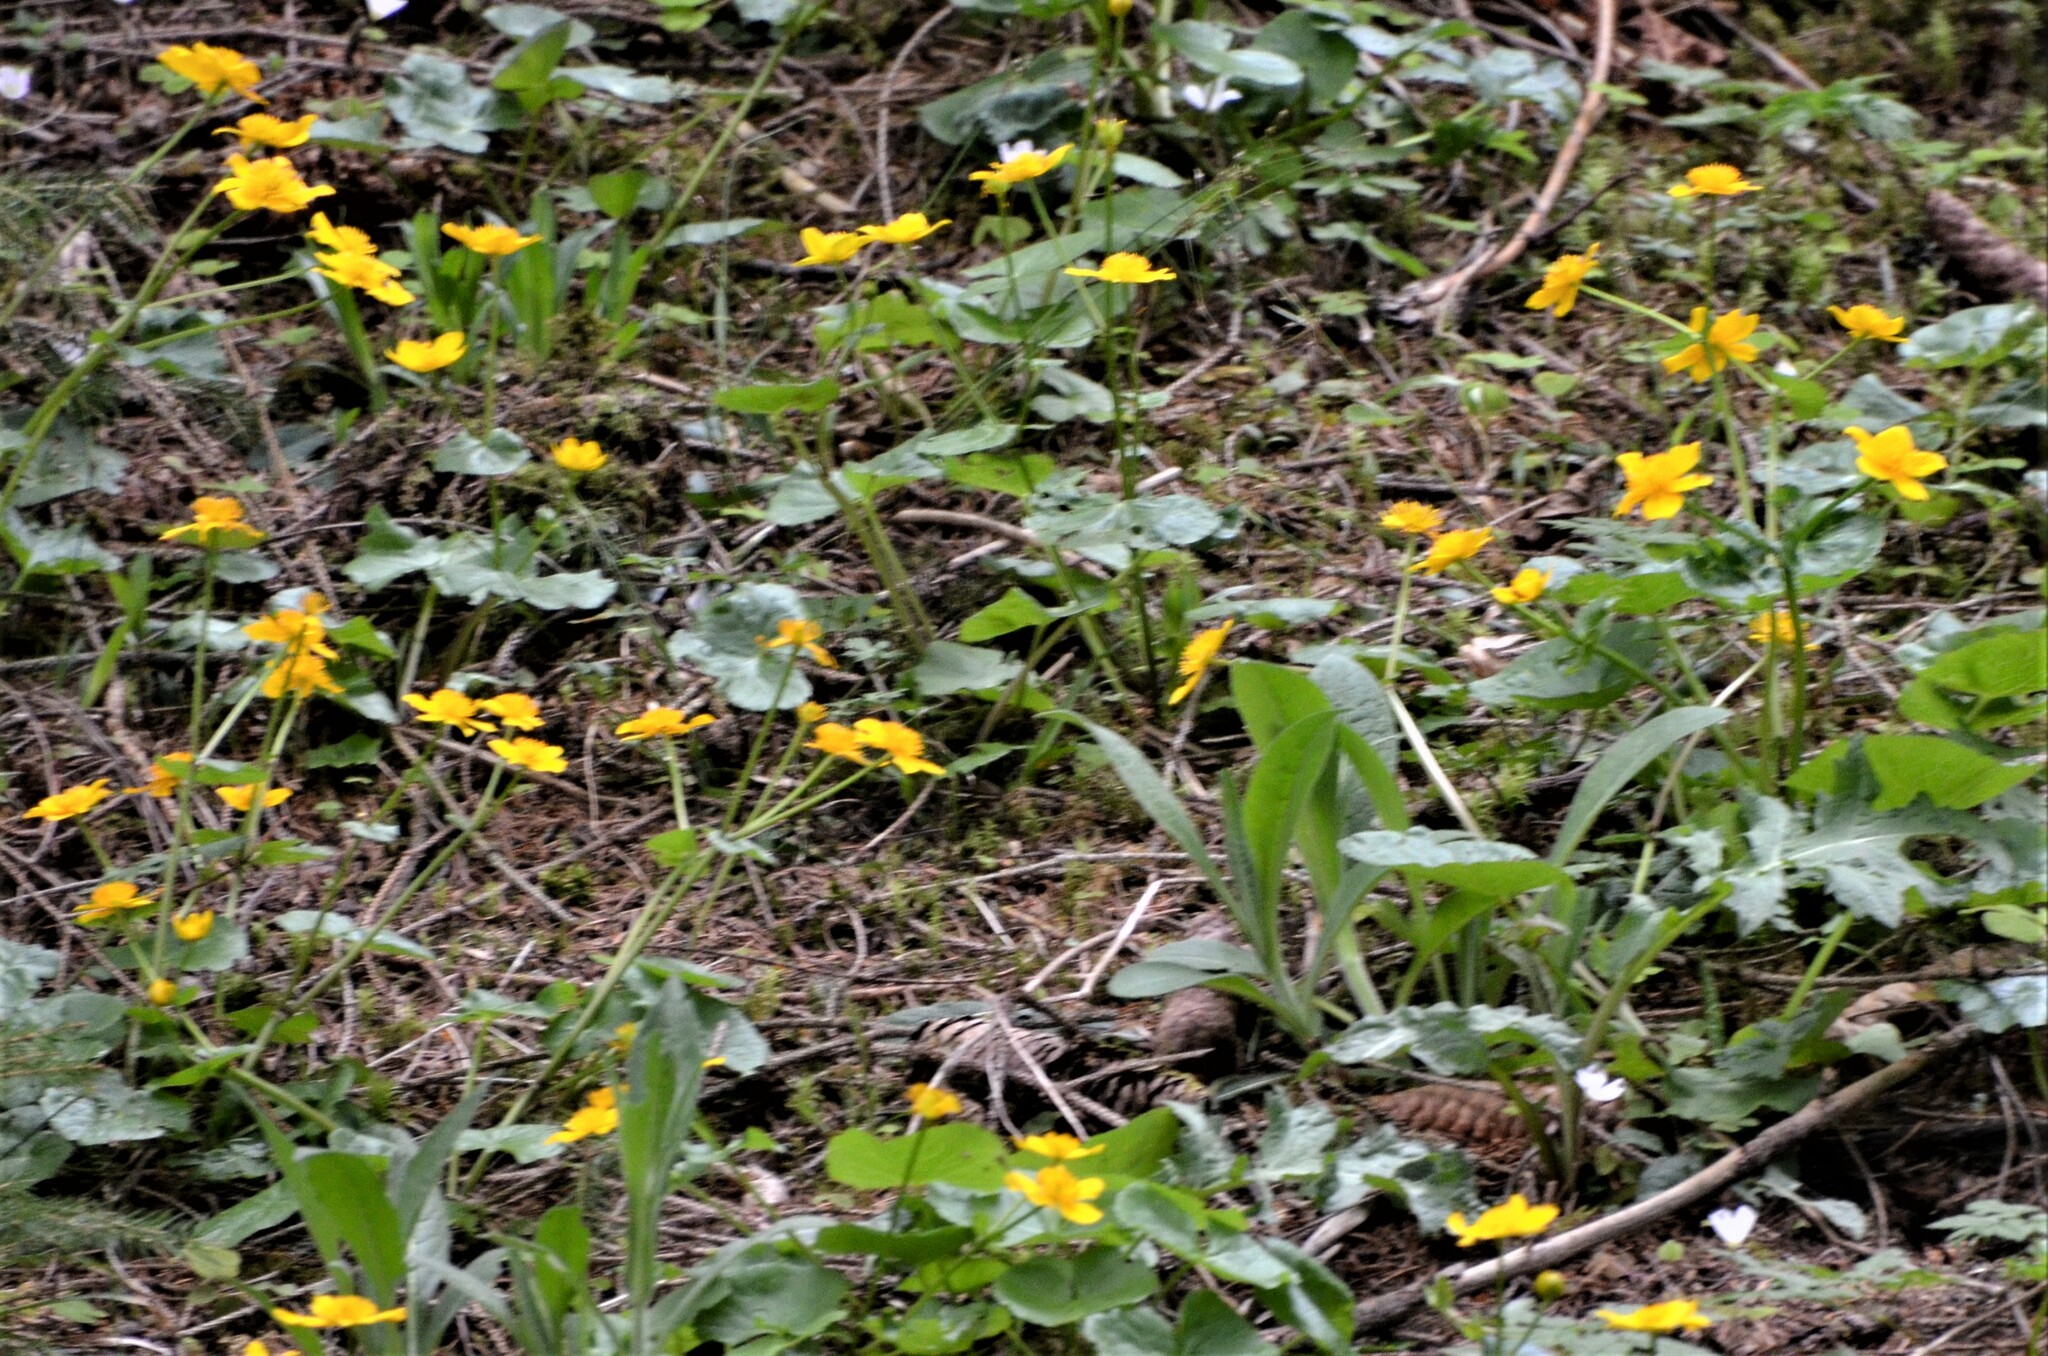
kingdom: Plantae
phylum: Tracheophyta
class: Magnoliopsida
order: Ranunculales
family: Ranunculaceae
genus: Caltha
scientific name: Caltha palustris
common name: Marsh marigold
